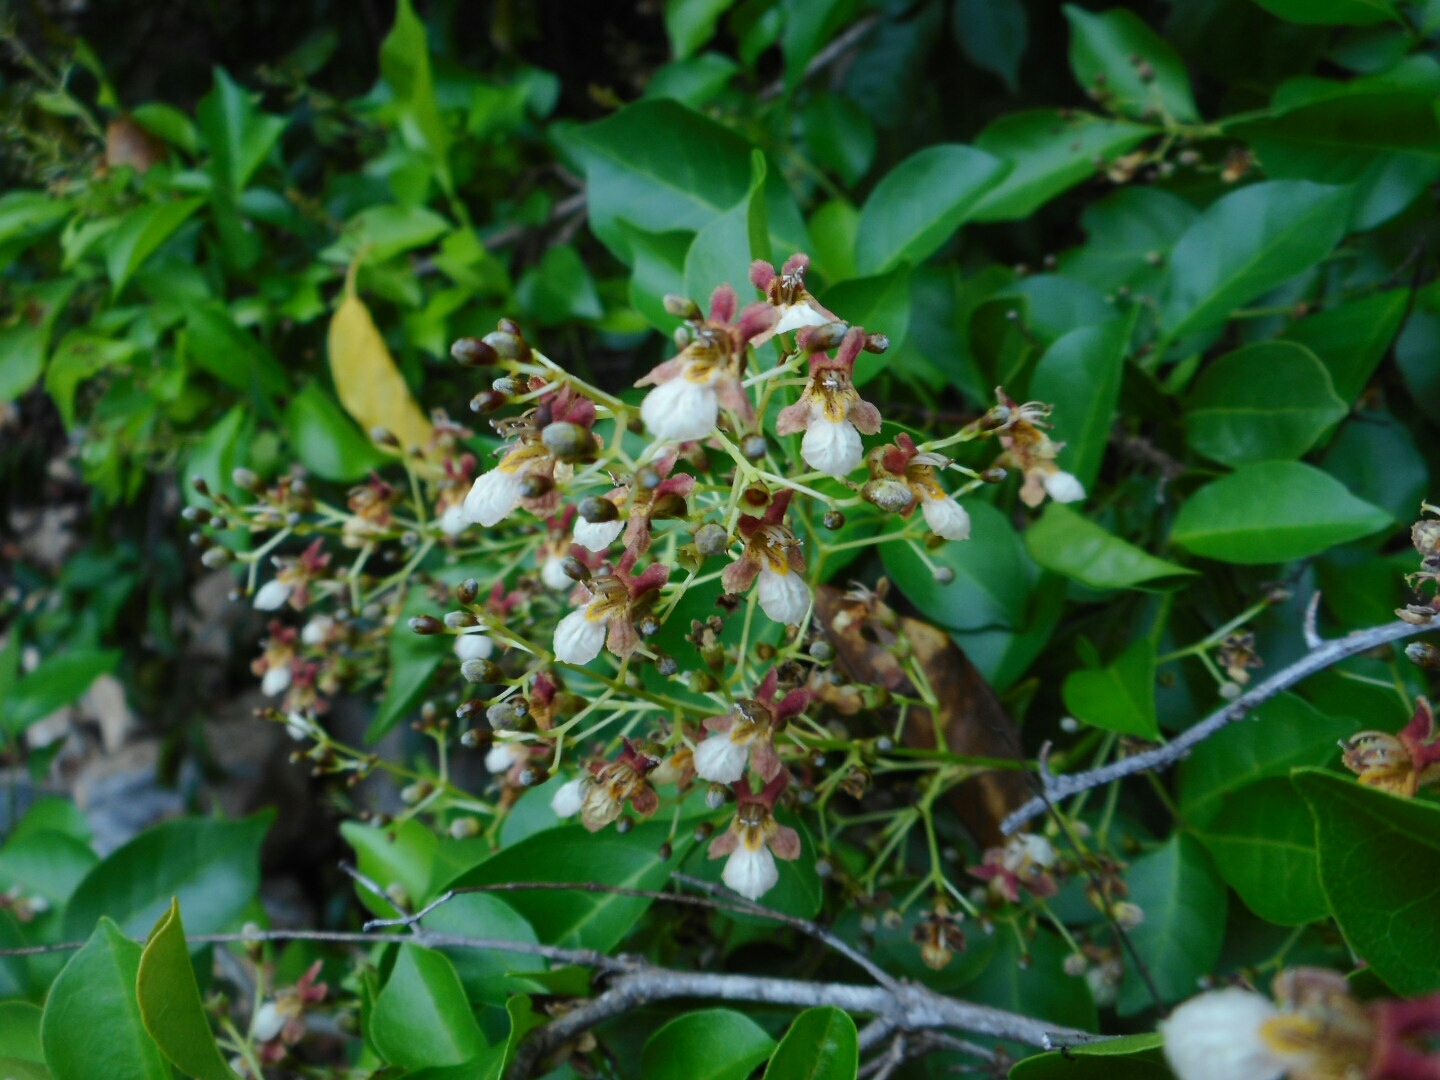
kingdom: Plantae
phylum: Tracheophyta
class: Magnoliopsida
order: Lamiales
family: Lamiaceae
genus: Vitex
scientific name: Vitex tripinnata
